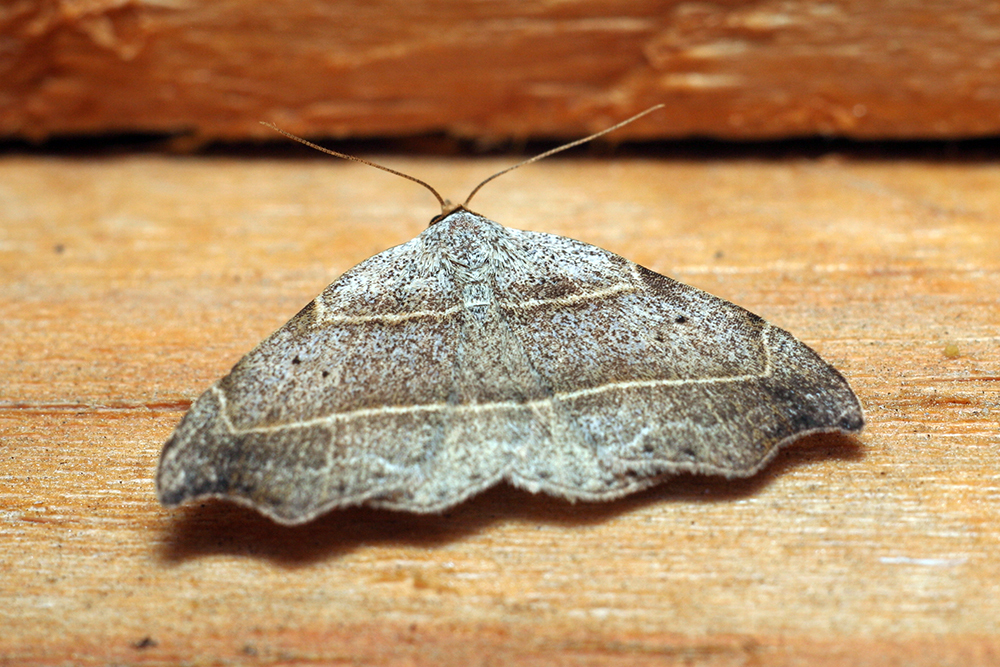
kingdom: Animalia
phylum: Arthropoda
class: Insecta
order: Lepidoptera
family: Erebidae
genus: Laspeyria
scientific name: Laspeyria flexula
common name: Beautiful hook-tip
